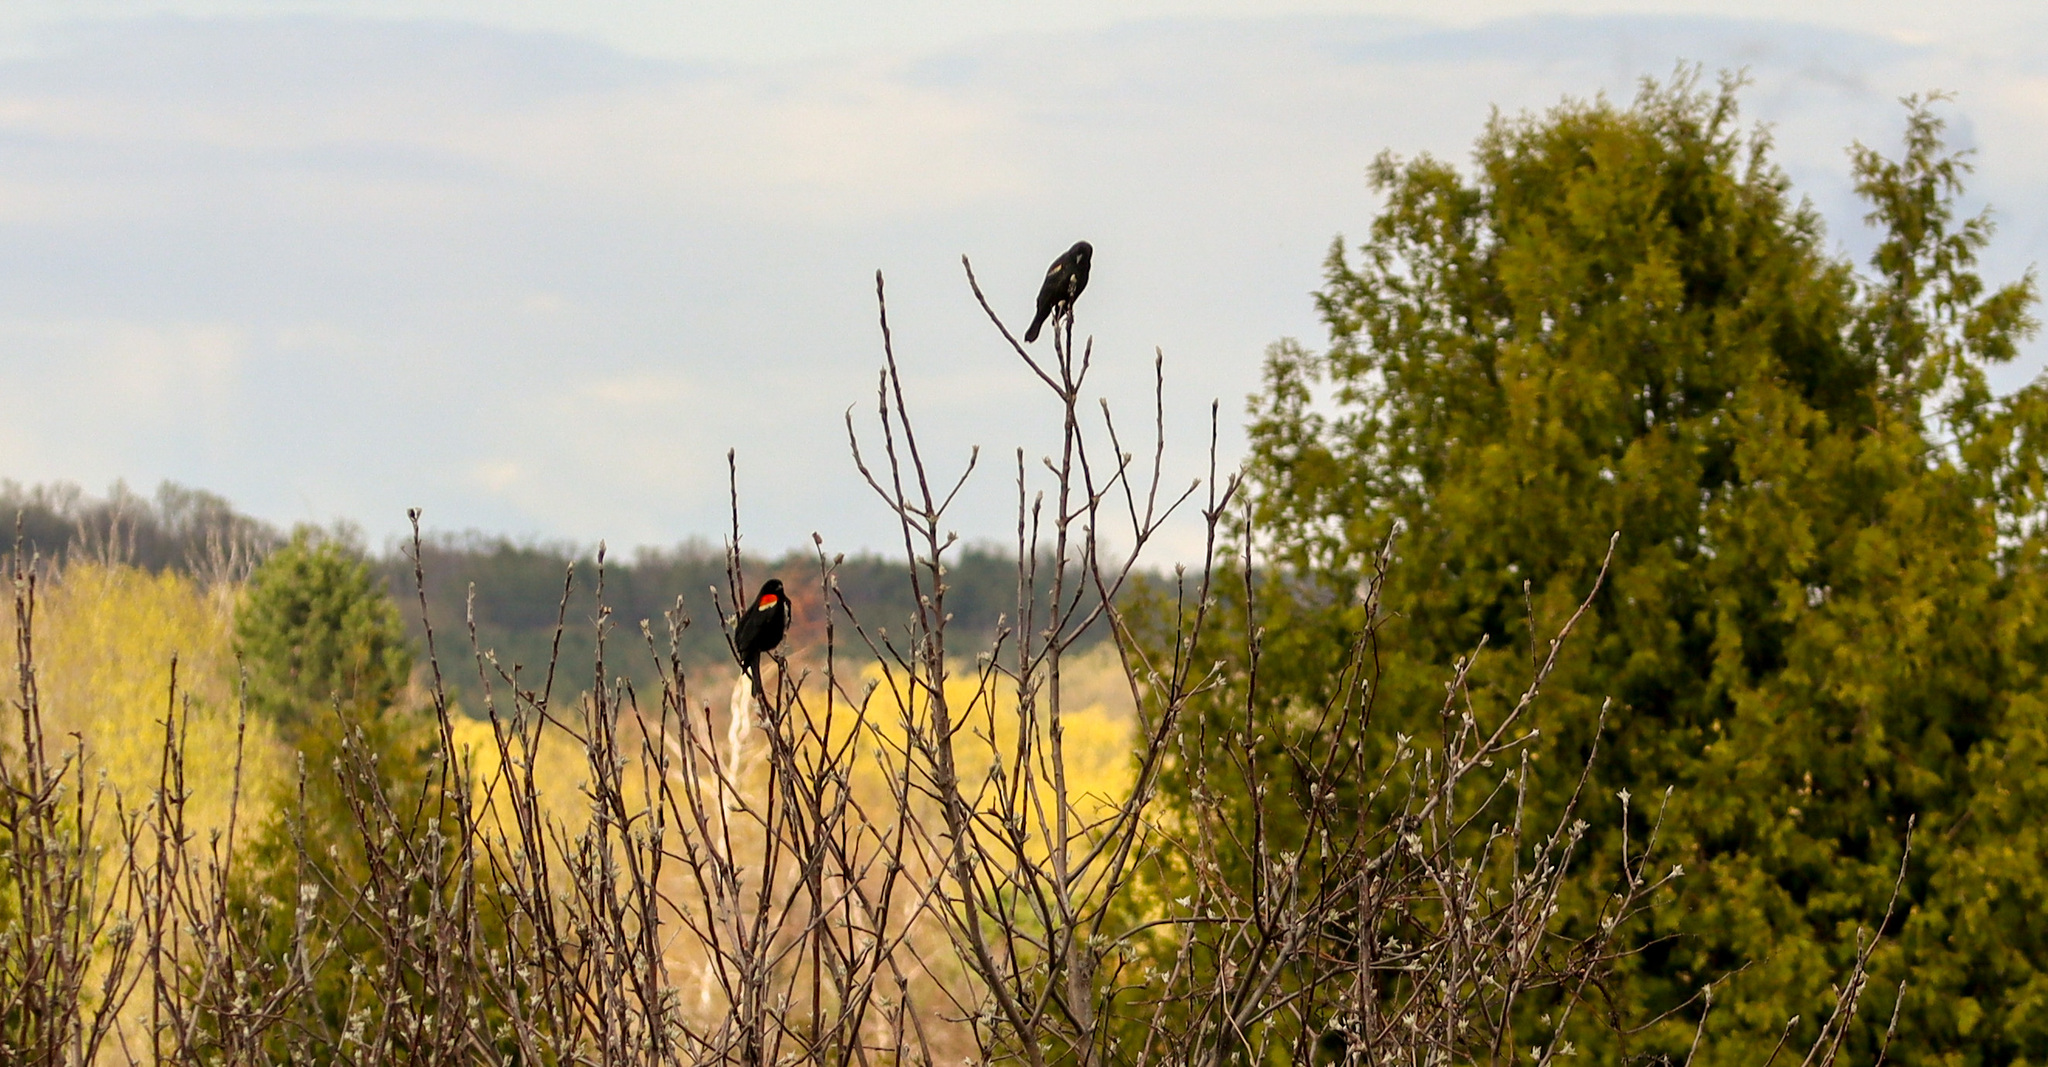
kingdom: Animalia
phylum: Chordata
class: Aves
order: Passeriformes
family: Icteridae
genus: Agelaius
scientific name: Agelaius phoeniceus
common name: Red-winged blackbird
